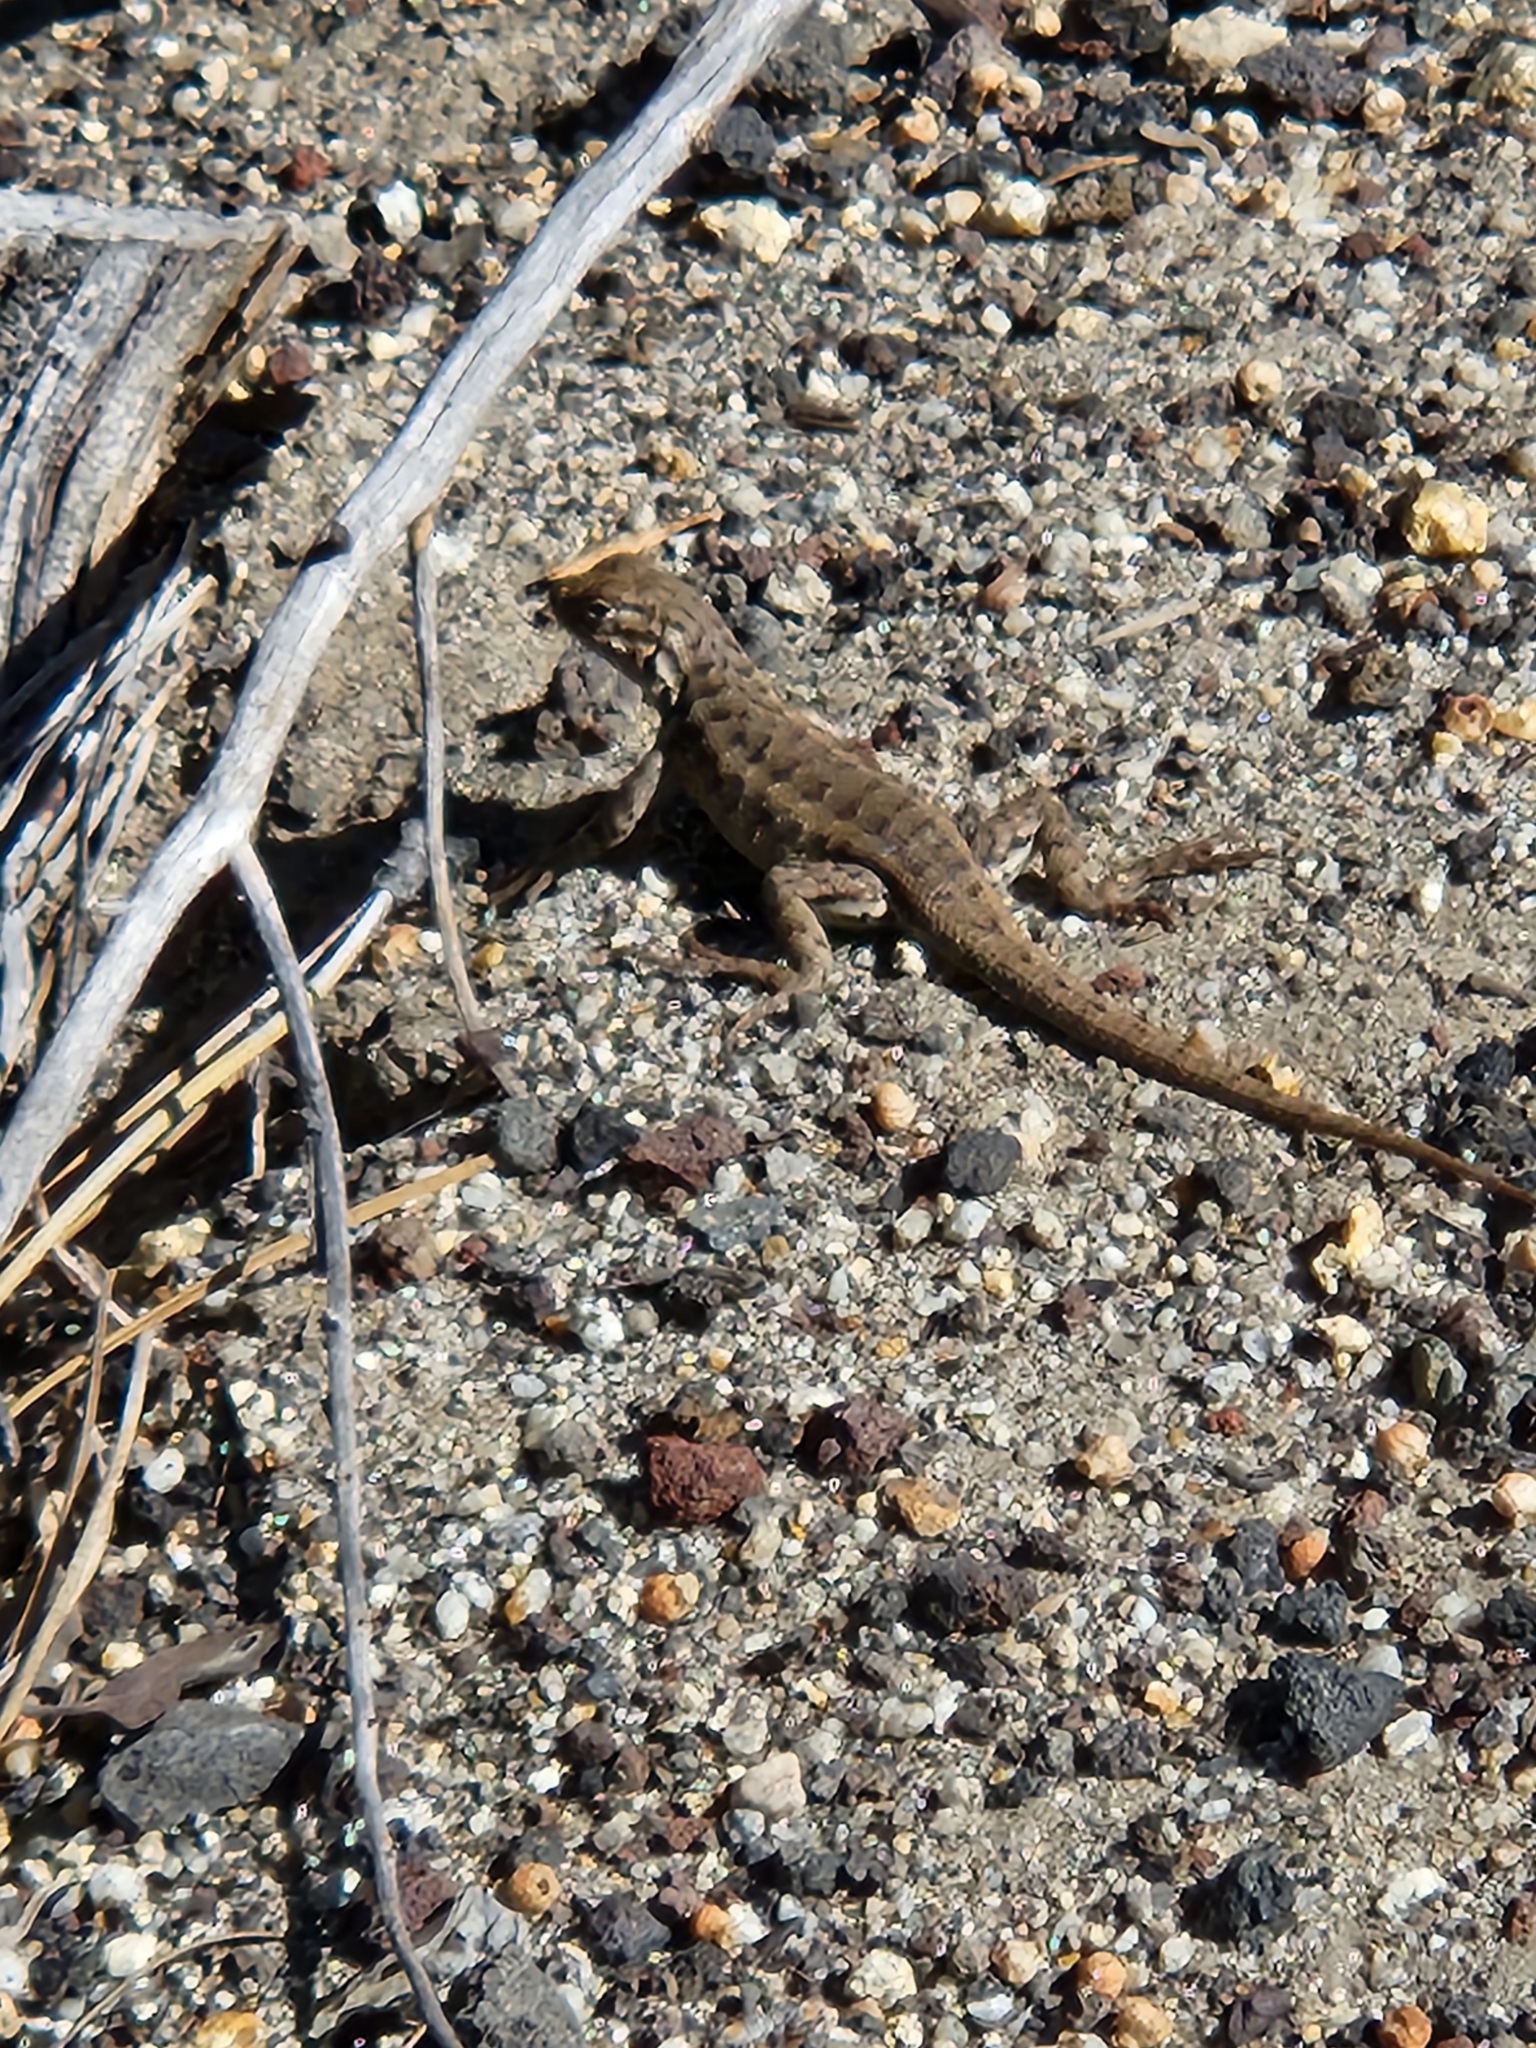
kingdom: Animalia
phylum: Chordata
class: Squamata
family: Phrynosomatidae
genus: Sceloporus
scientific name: Sceloporus graciosus
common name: Sagebrush lizard
